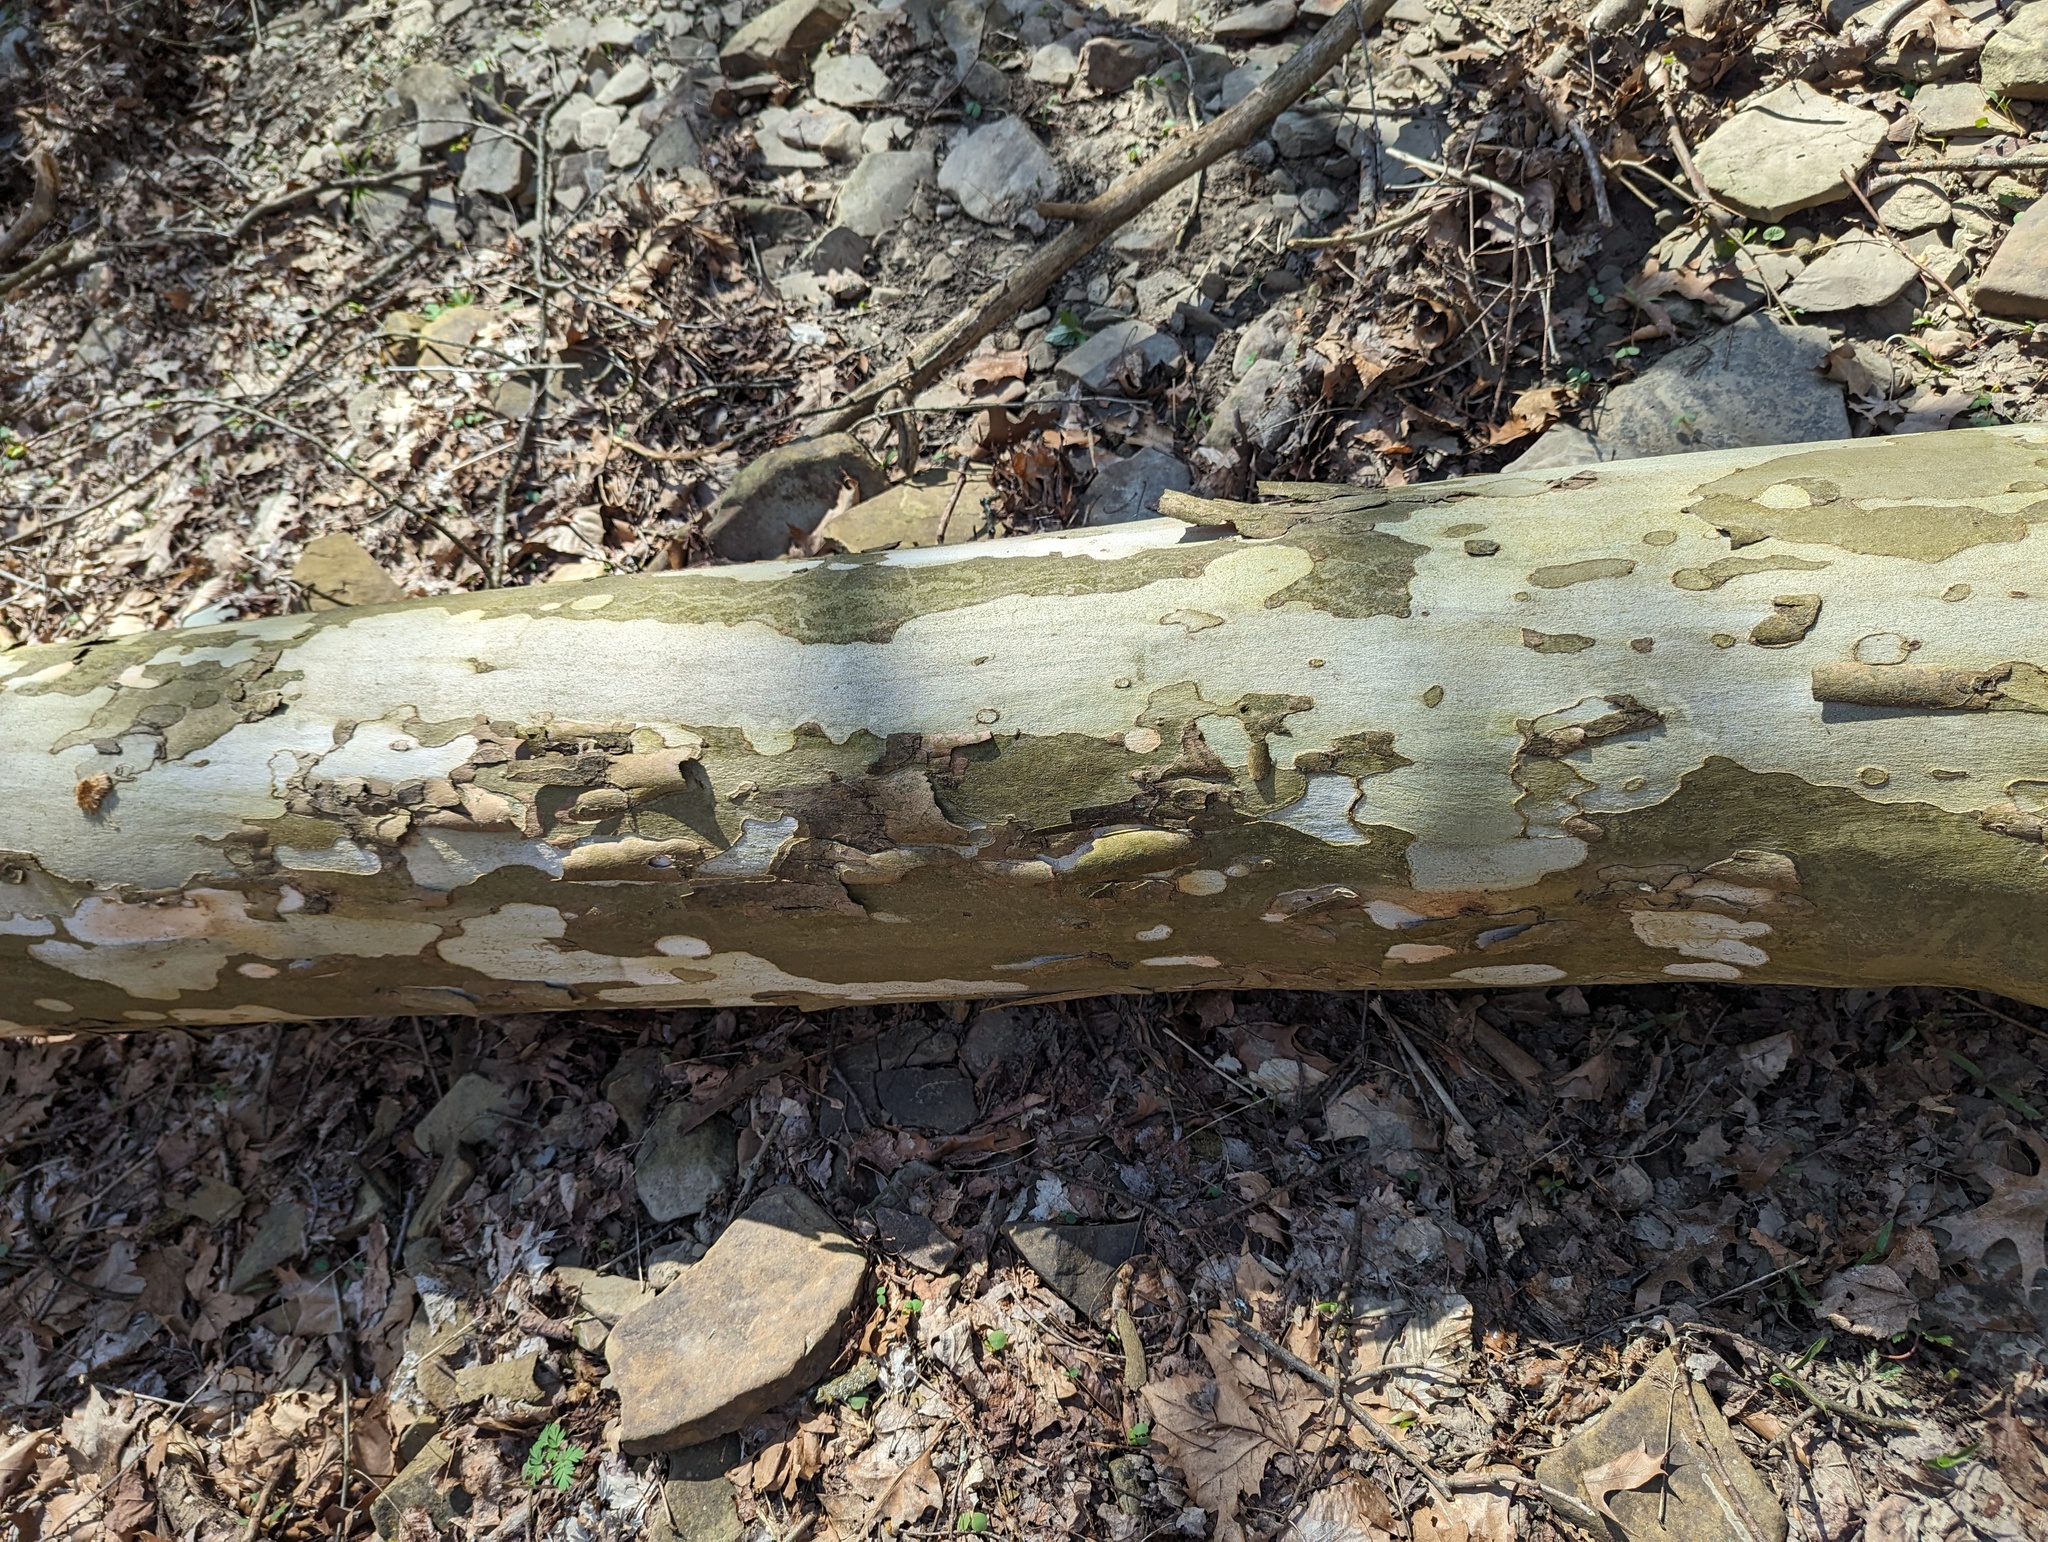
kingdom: Plantae
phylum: Tracheophyta
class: Magnoliopsida
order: Proteales
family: Platanaceae
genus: Platanus
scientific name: Platanus occidentalis
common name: American sycamore
